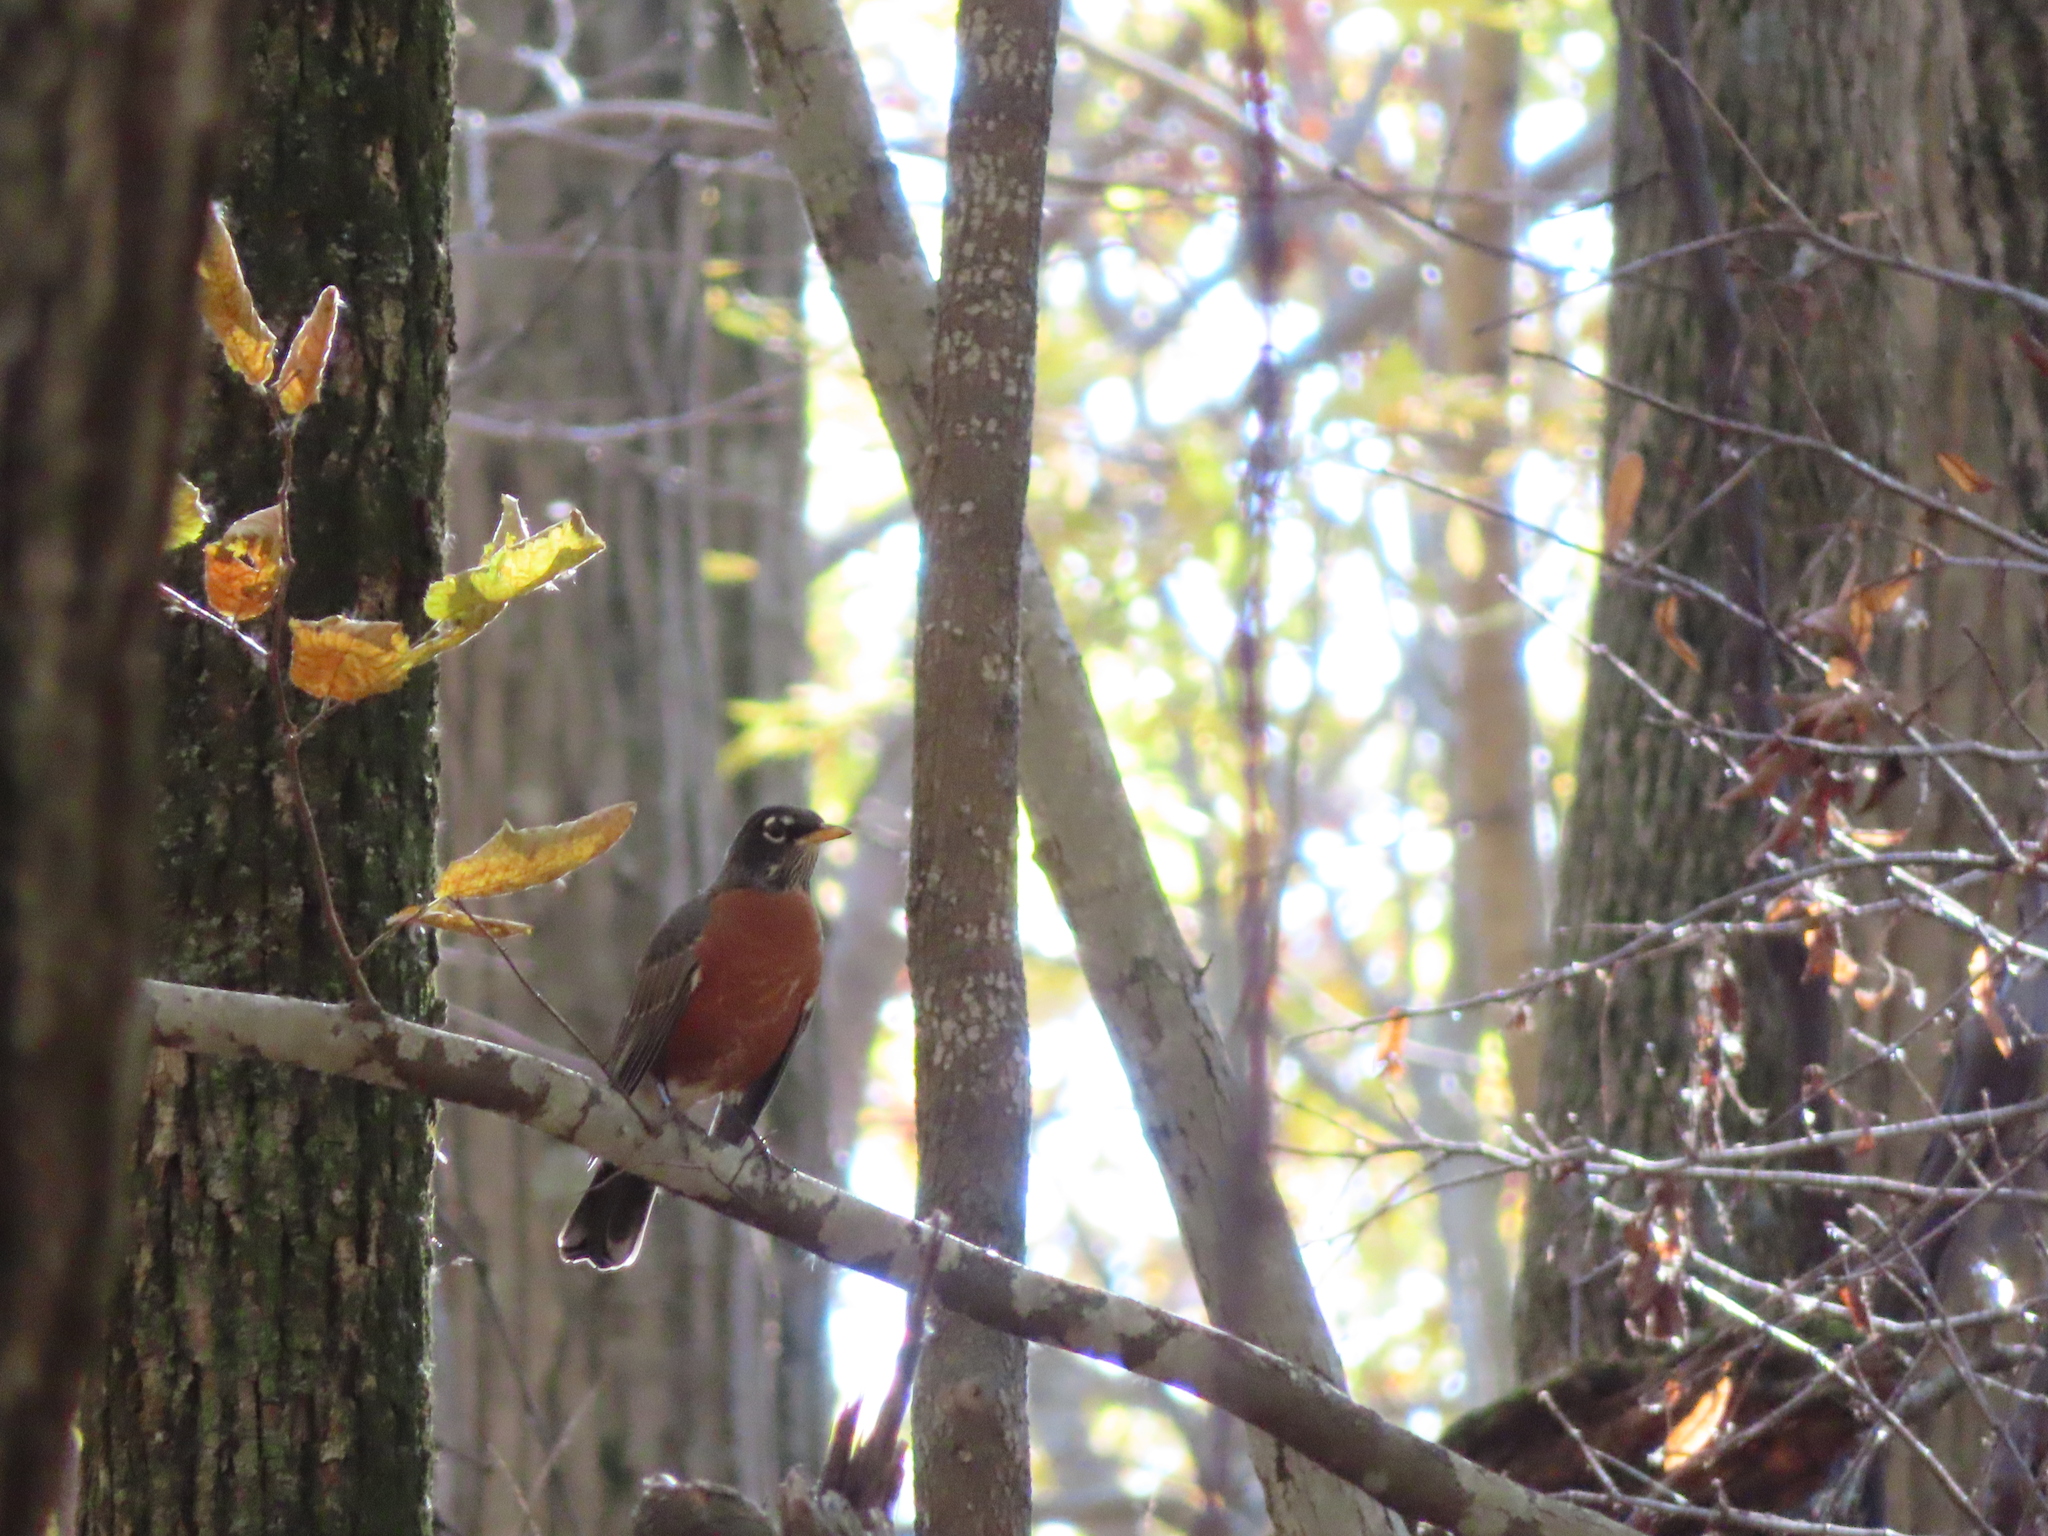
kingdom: Animalia
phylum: Chordata
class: Aves
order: Passeriformes
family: Turdidae
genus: Turdus
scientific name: Turdus migratorius
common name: American robin
